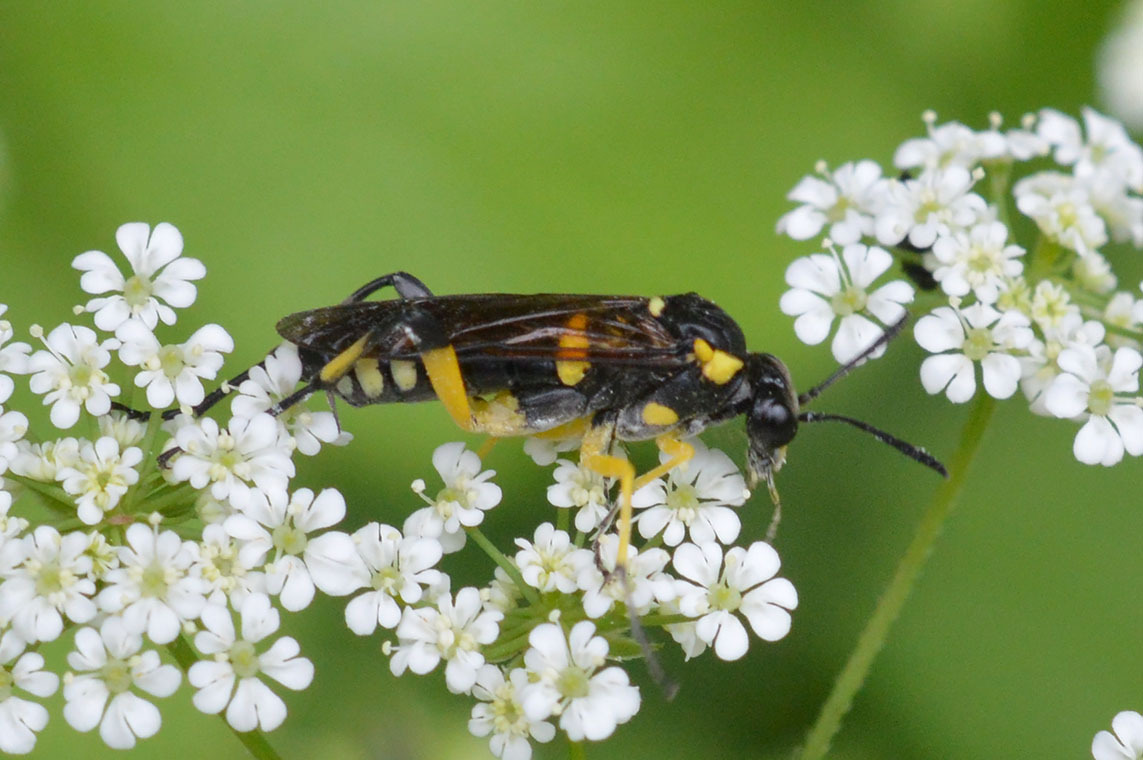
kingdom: Animalia
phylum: Arthropoda
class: Insecta
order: Hymenoptera
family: Tenthredinidae
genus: Macrophya
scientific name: Macrophya montana
